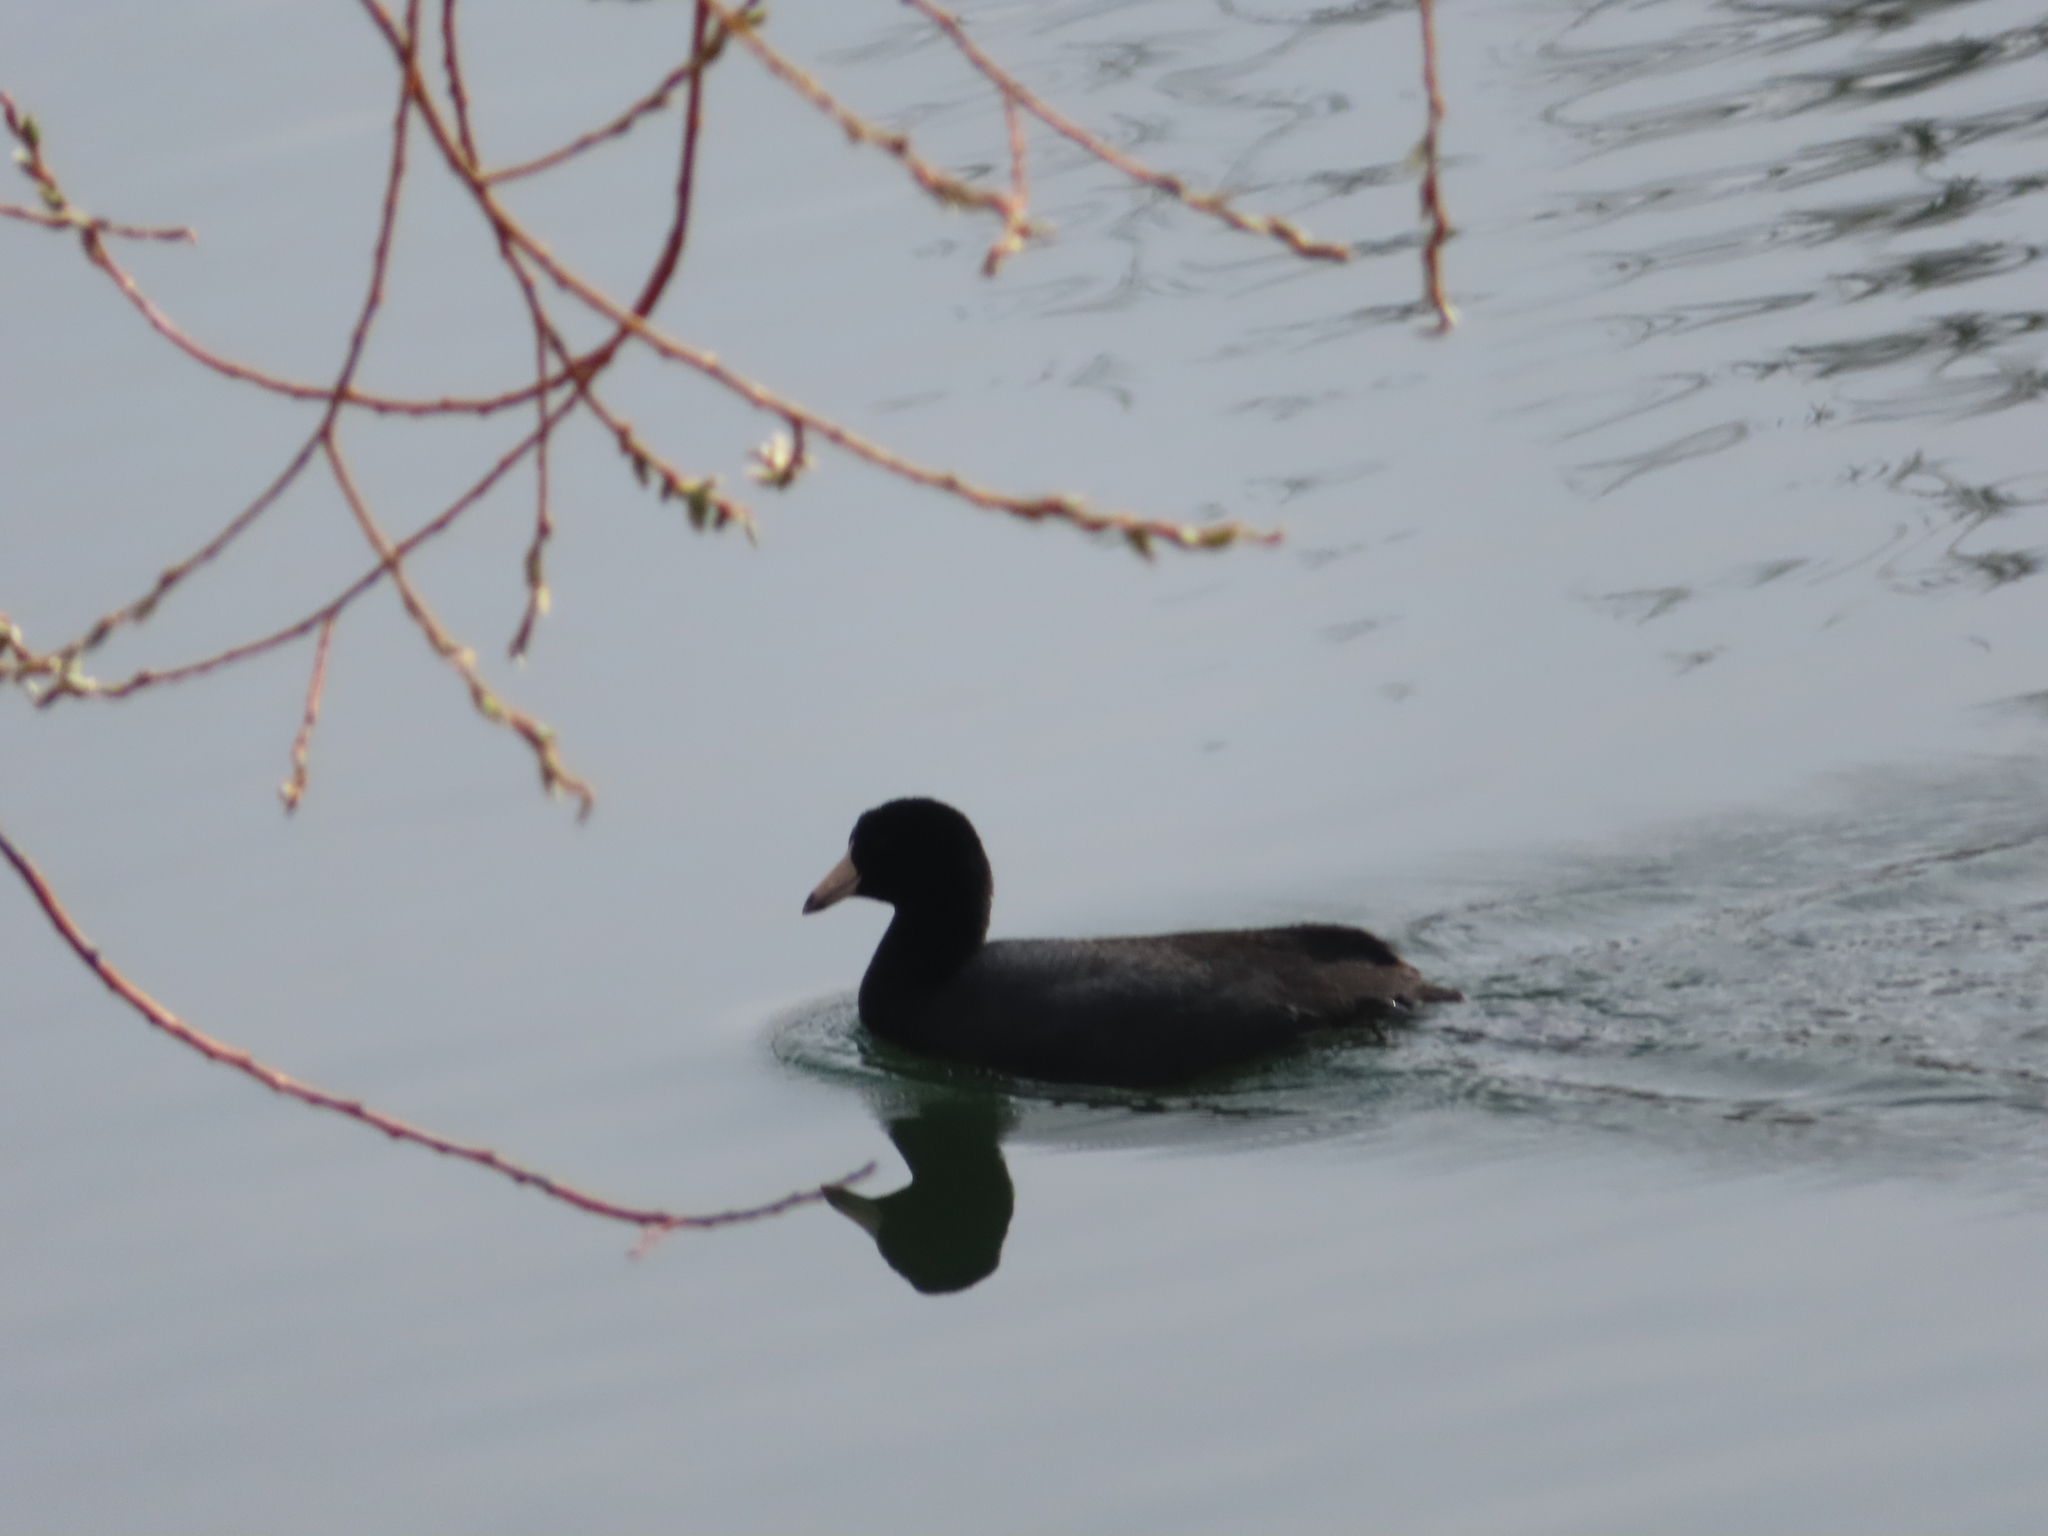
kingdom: Animalia
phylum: Chordata
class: Aves
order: Gruiformes
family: Rallidae
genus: Fulica
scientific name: Fulica americana
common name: American coot
